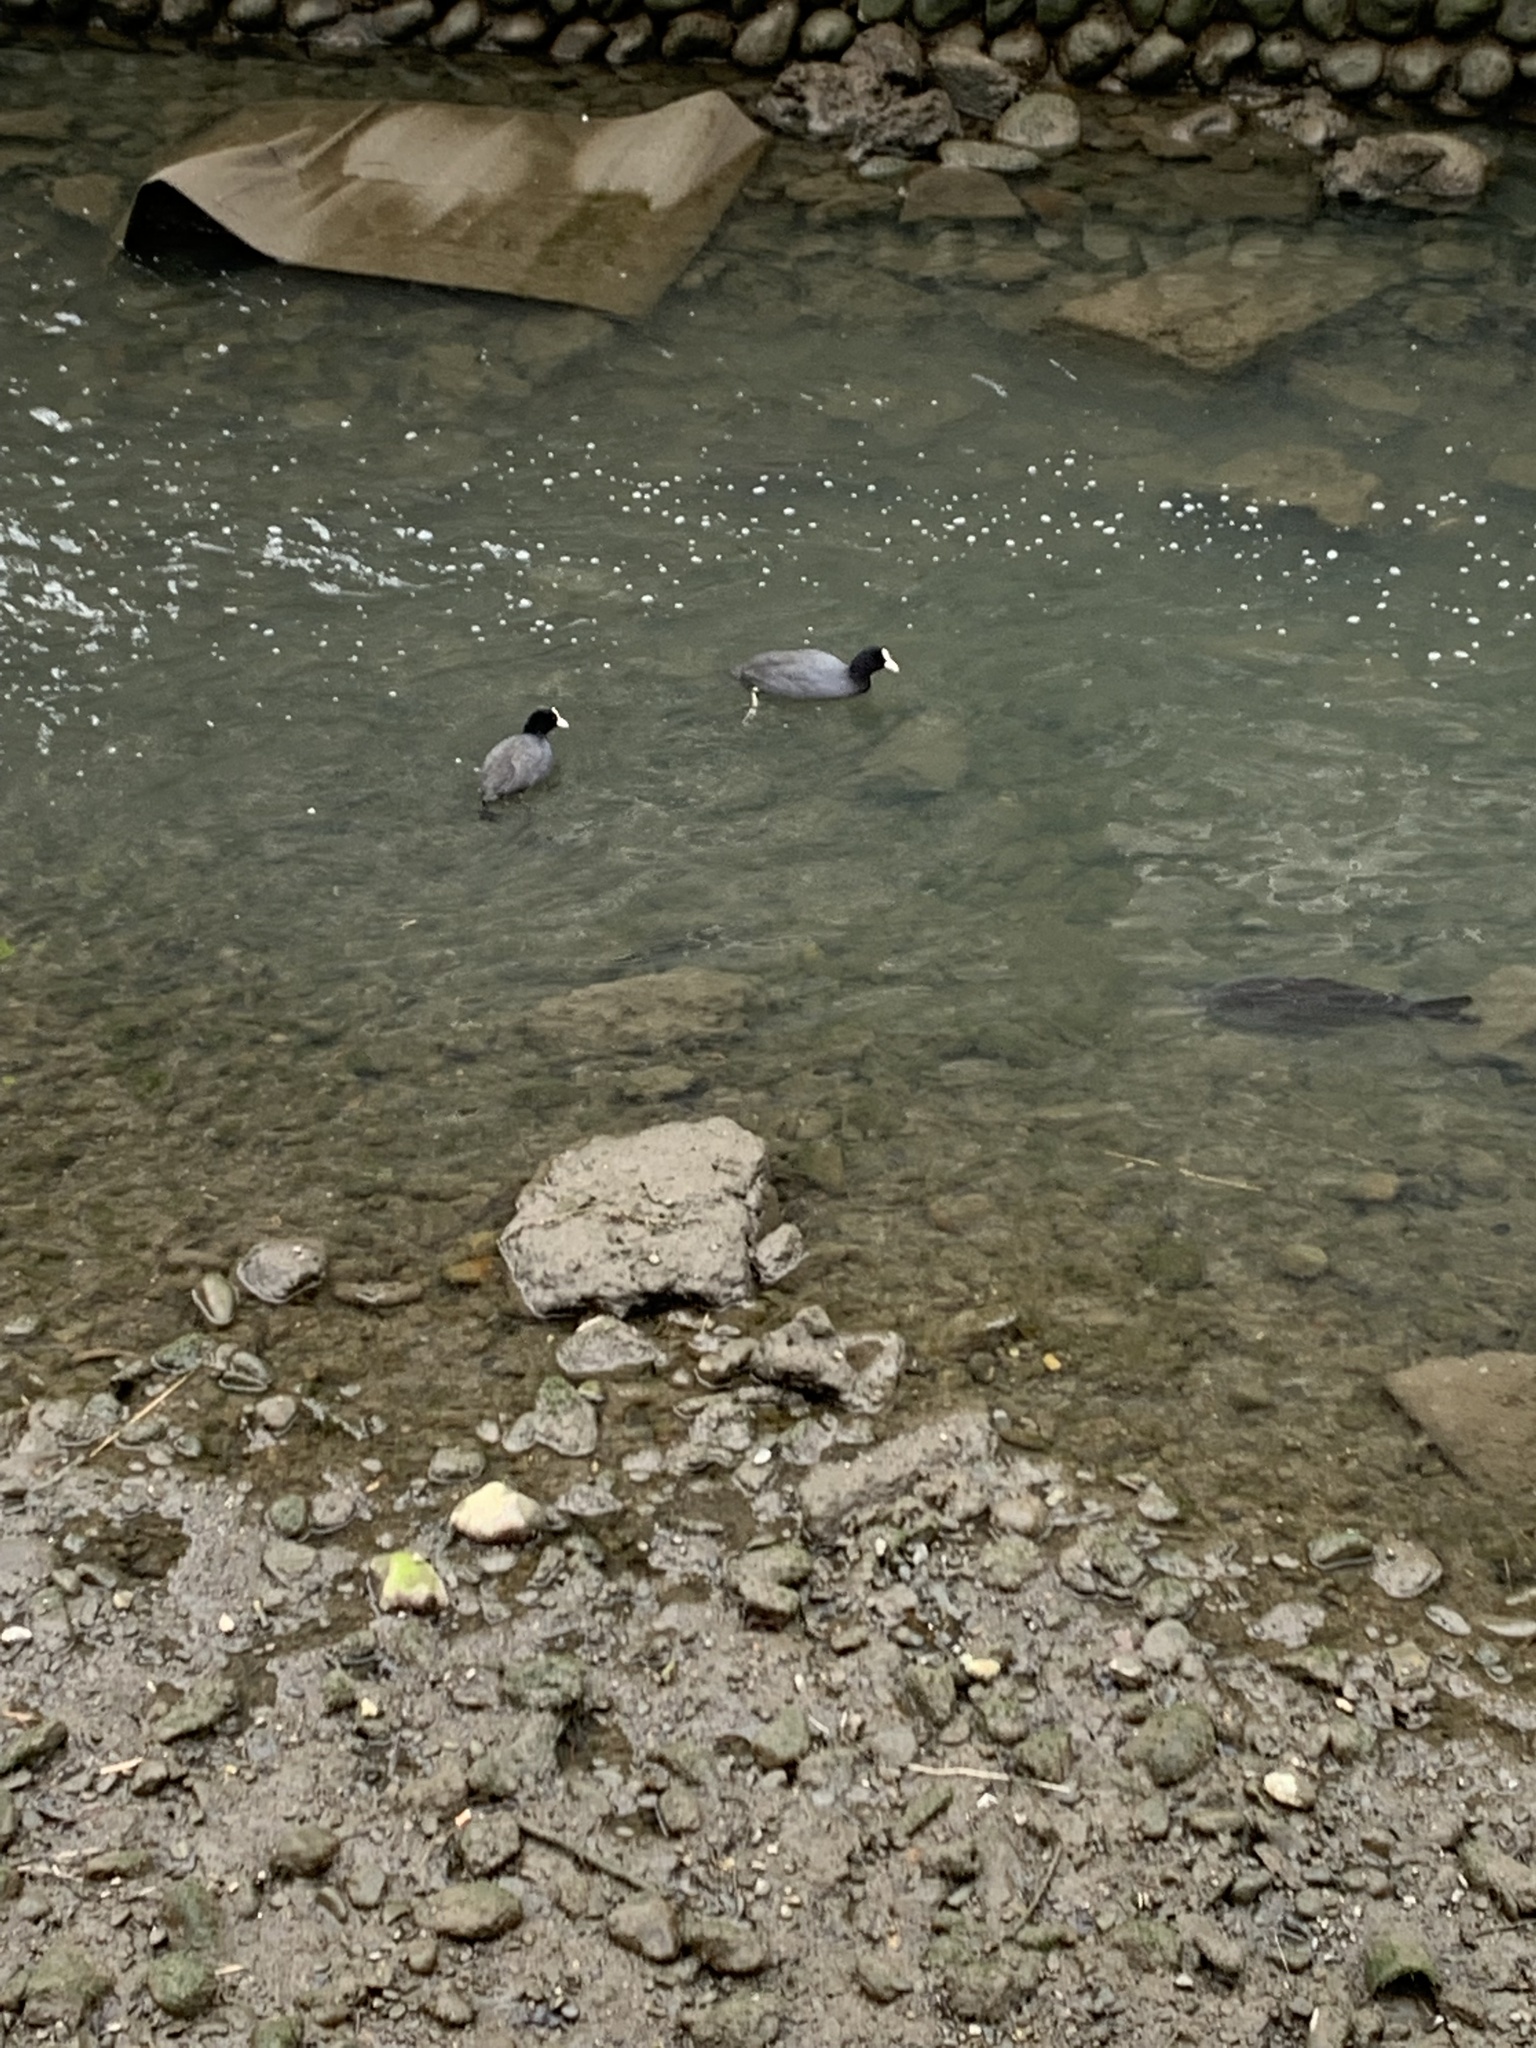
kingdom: Animalia
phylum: Chordata
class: Aves
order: Gruiformes
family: Rallidae
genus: Fulica
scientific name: Fulica atra
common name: Eurasian coot
